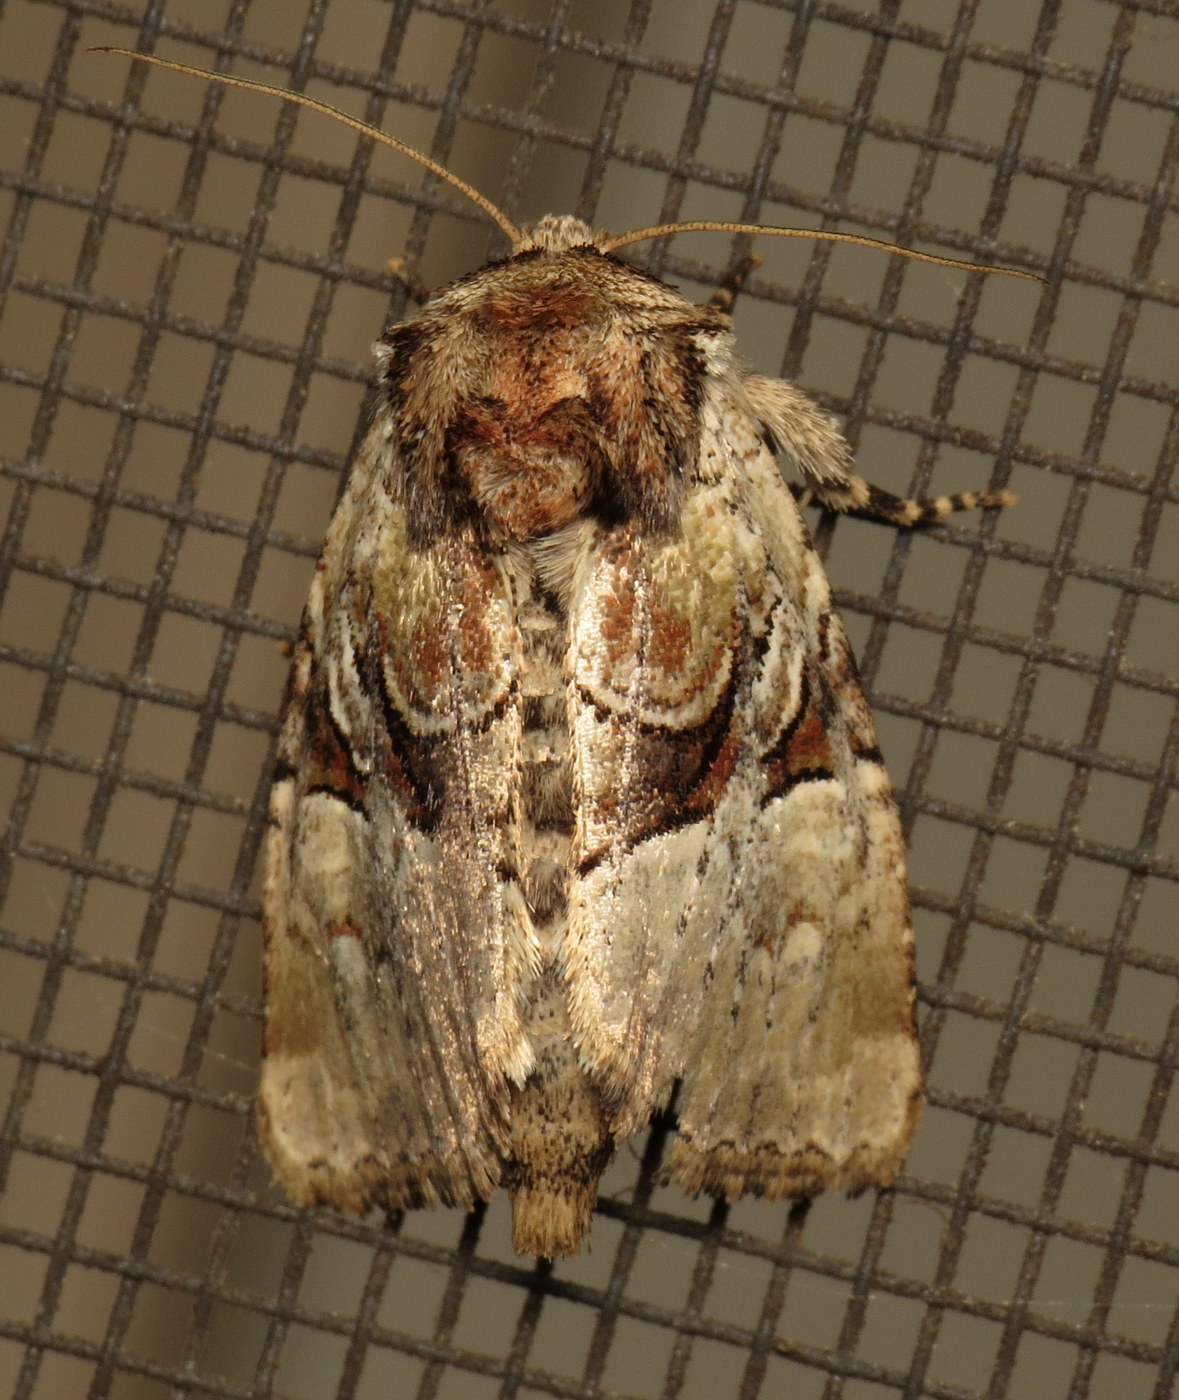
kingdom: Animalia
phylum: Arthropoda
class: Insecta
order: Lepidoptera
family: Noctuidae
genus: Meropleon
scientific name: Meropleon diversicolor
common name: Multicolored sedgeminer moth
